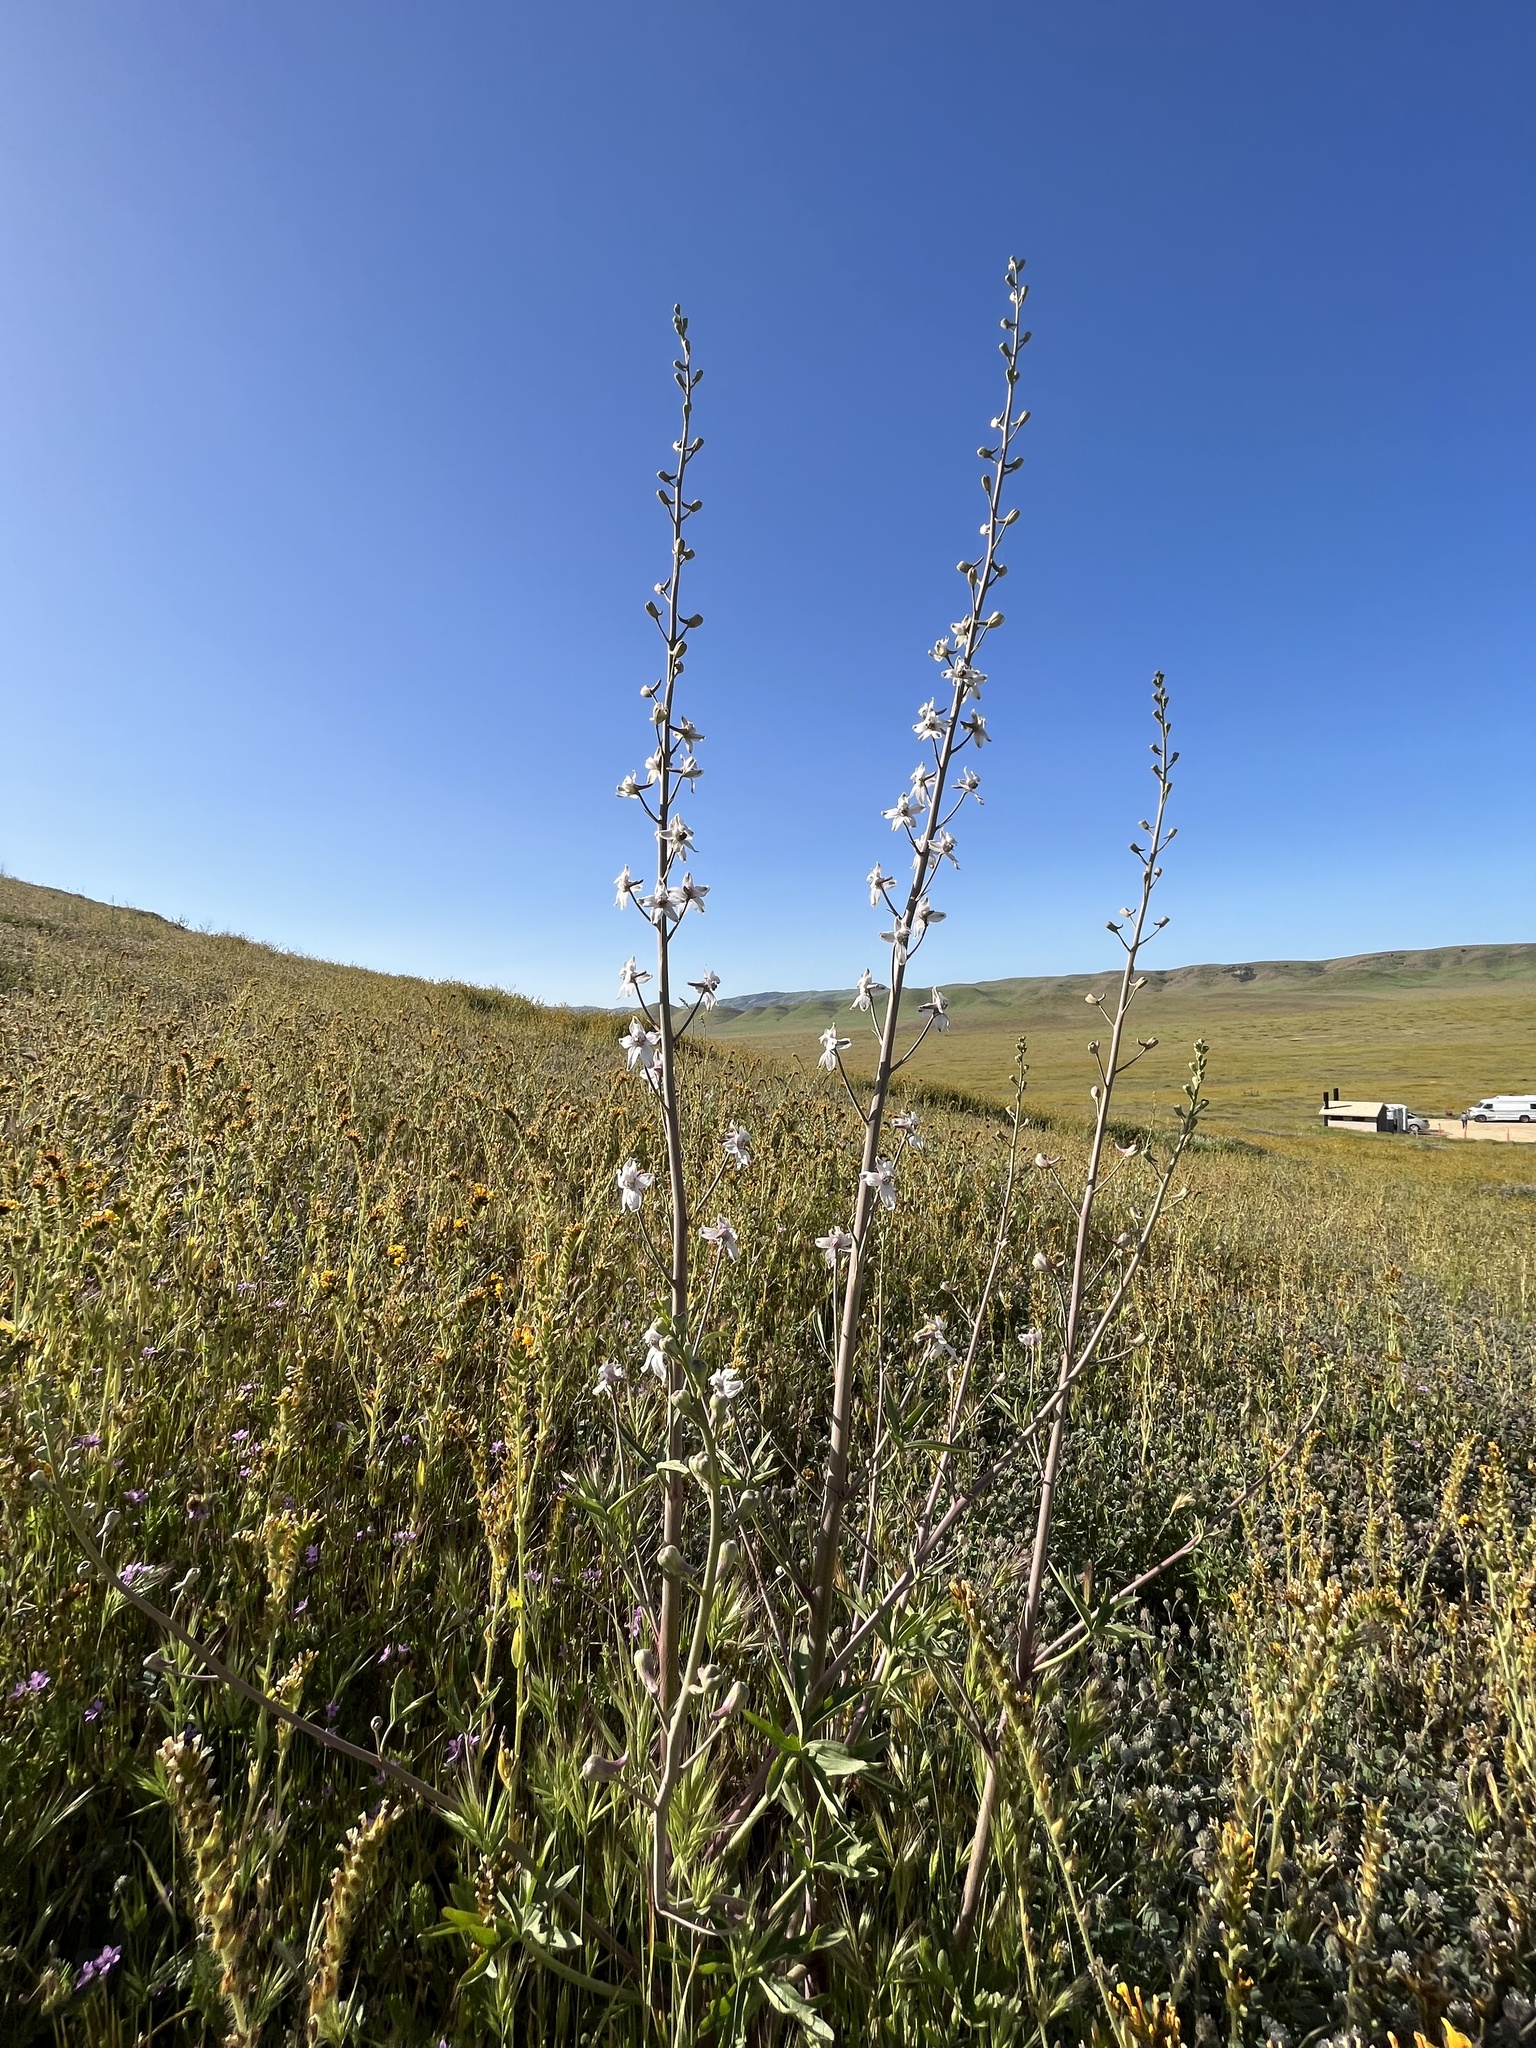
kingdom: Plantae
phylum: Tracheophyta
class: Magnoliopsida
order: Ranunculales
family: Ranunculaceae
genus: Delphinium
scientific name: Delphinium gypsophilum
